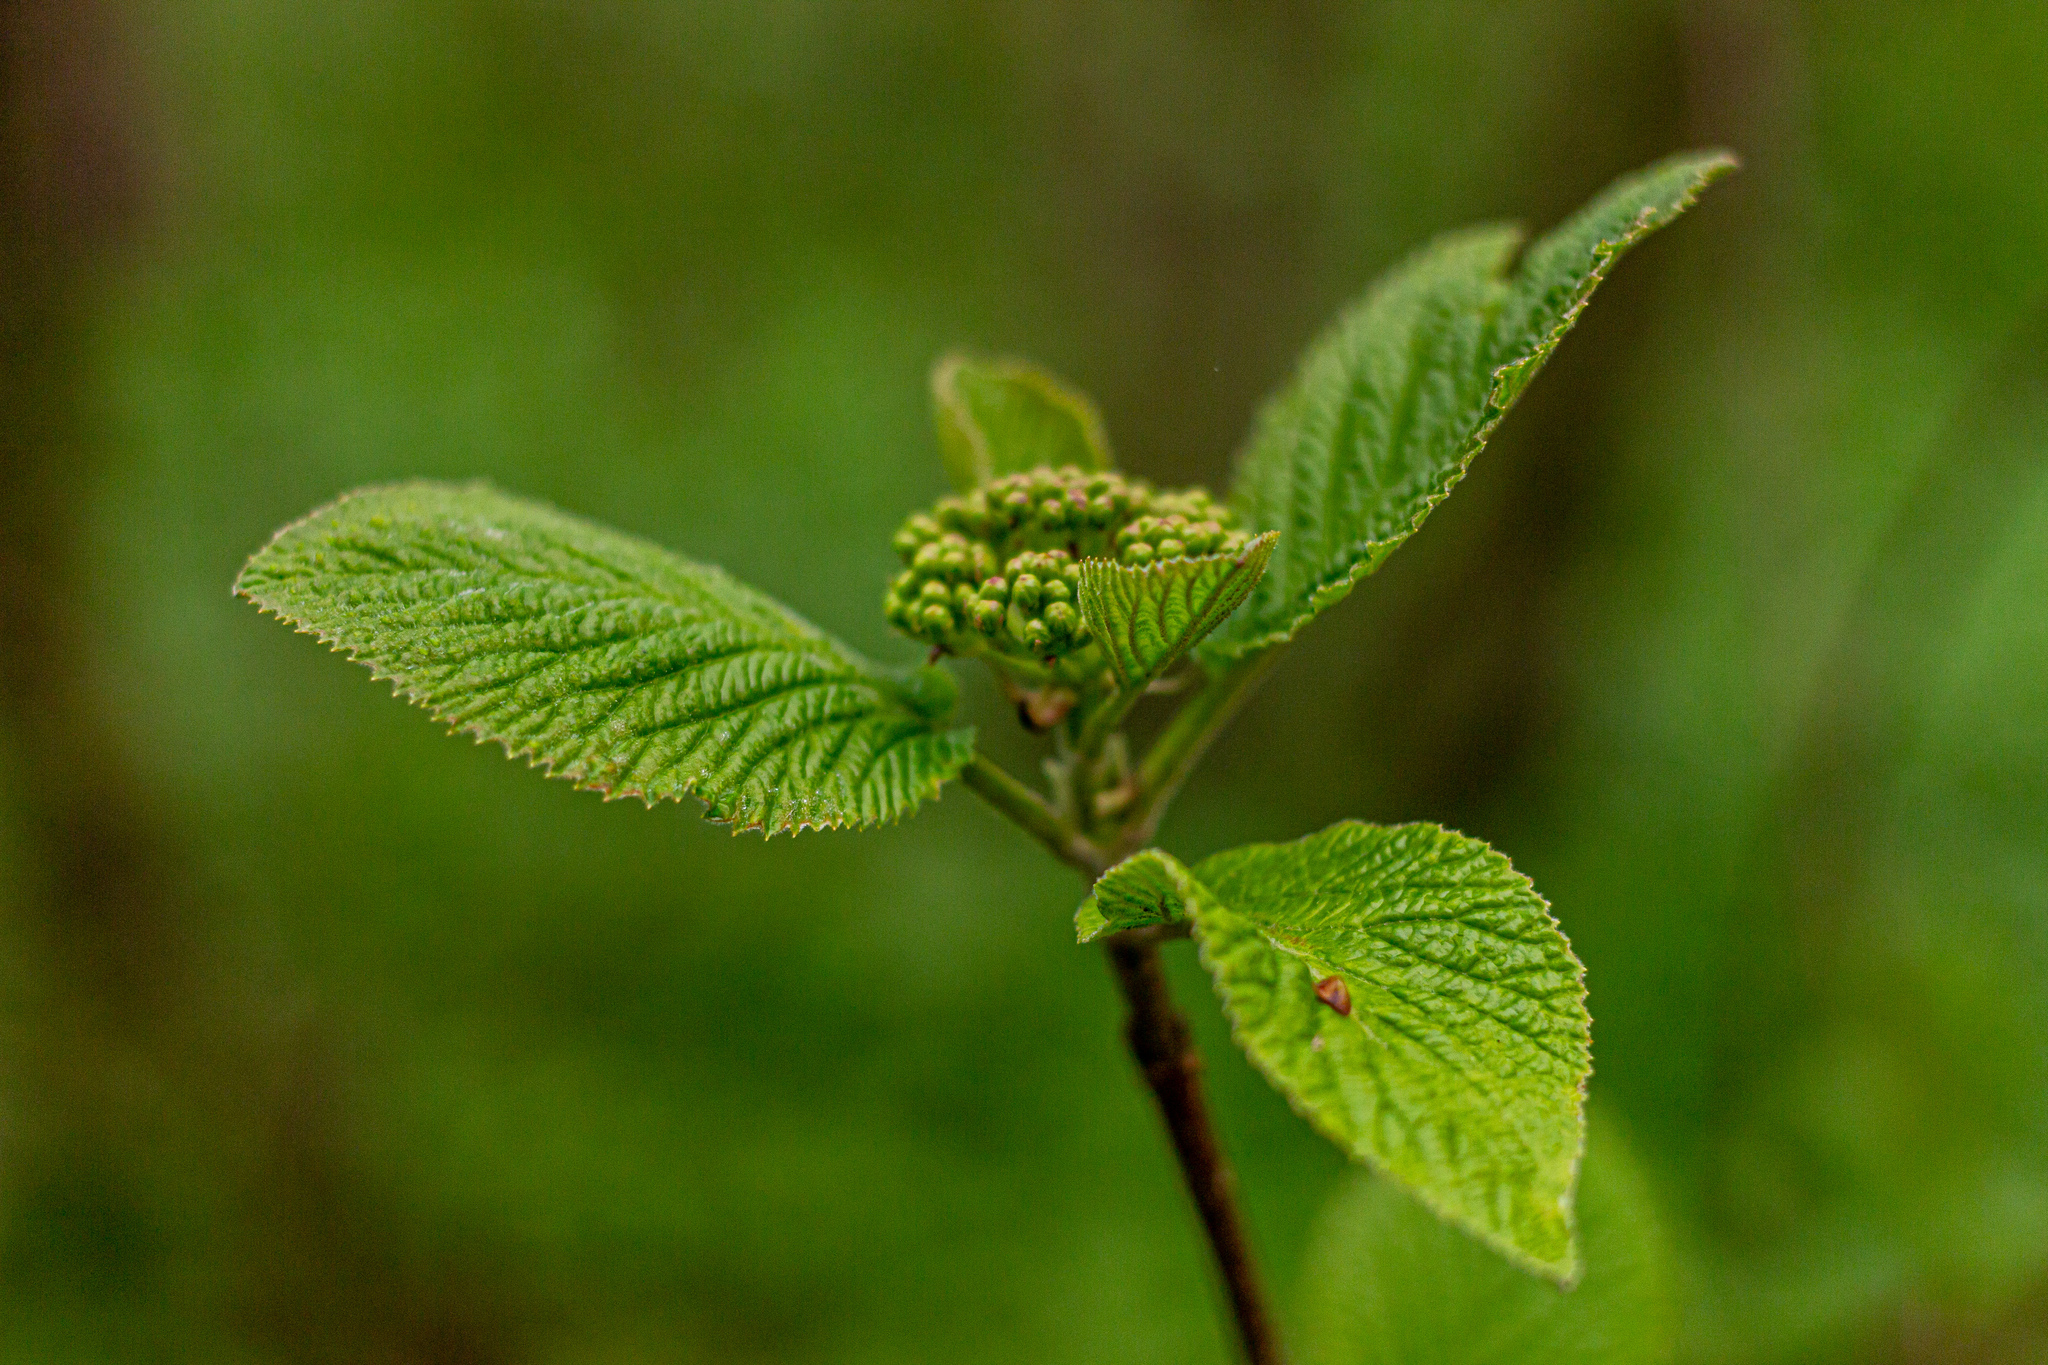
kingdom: Plantae
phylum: Tracheophyta
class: Magnoliopsida
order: Dipsacales
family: Viburnaceae
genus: Viburnum
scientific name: Viburnum lantana
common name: Wayfaring tree
